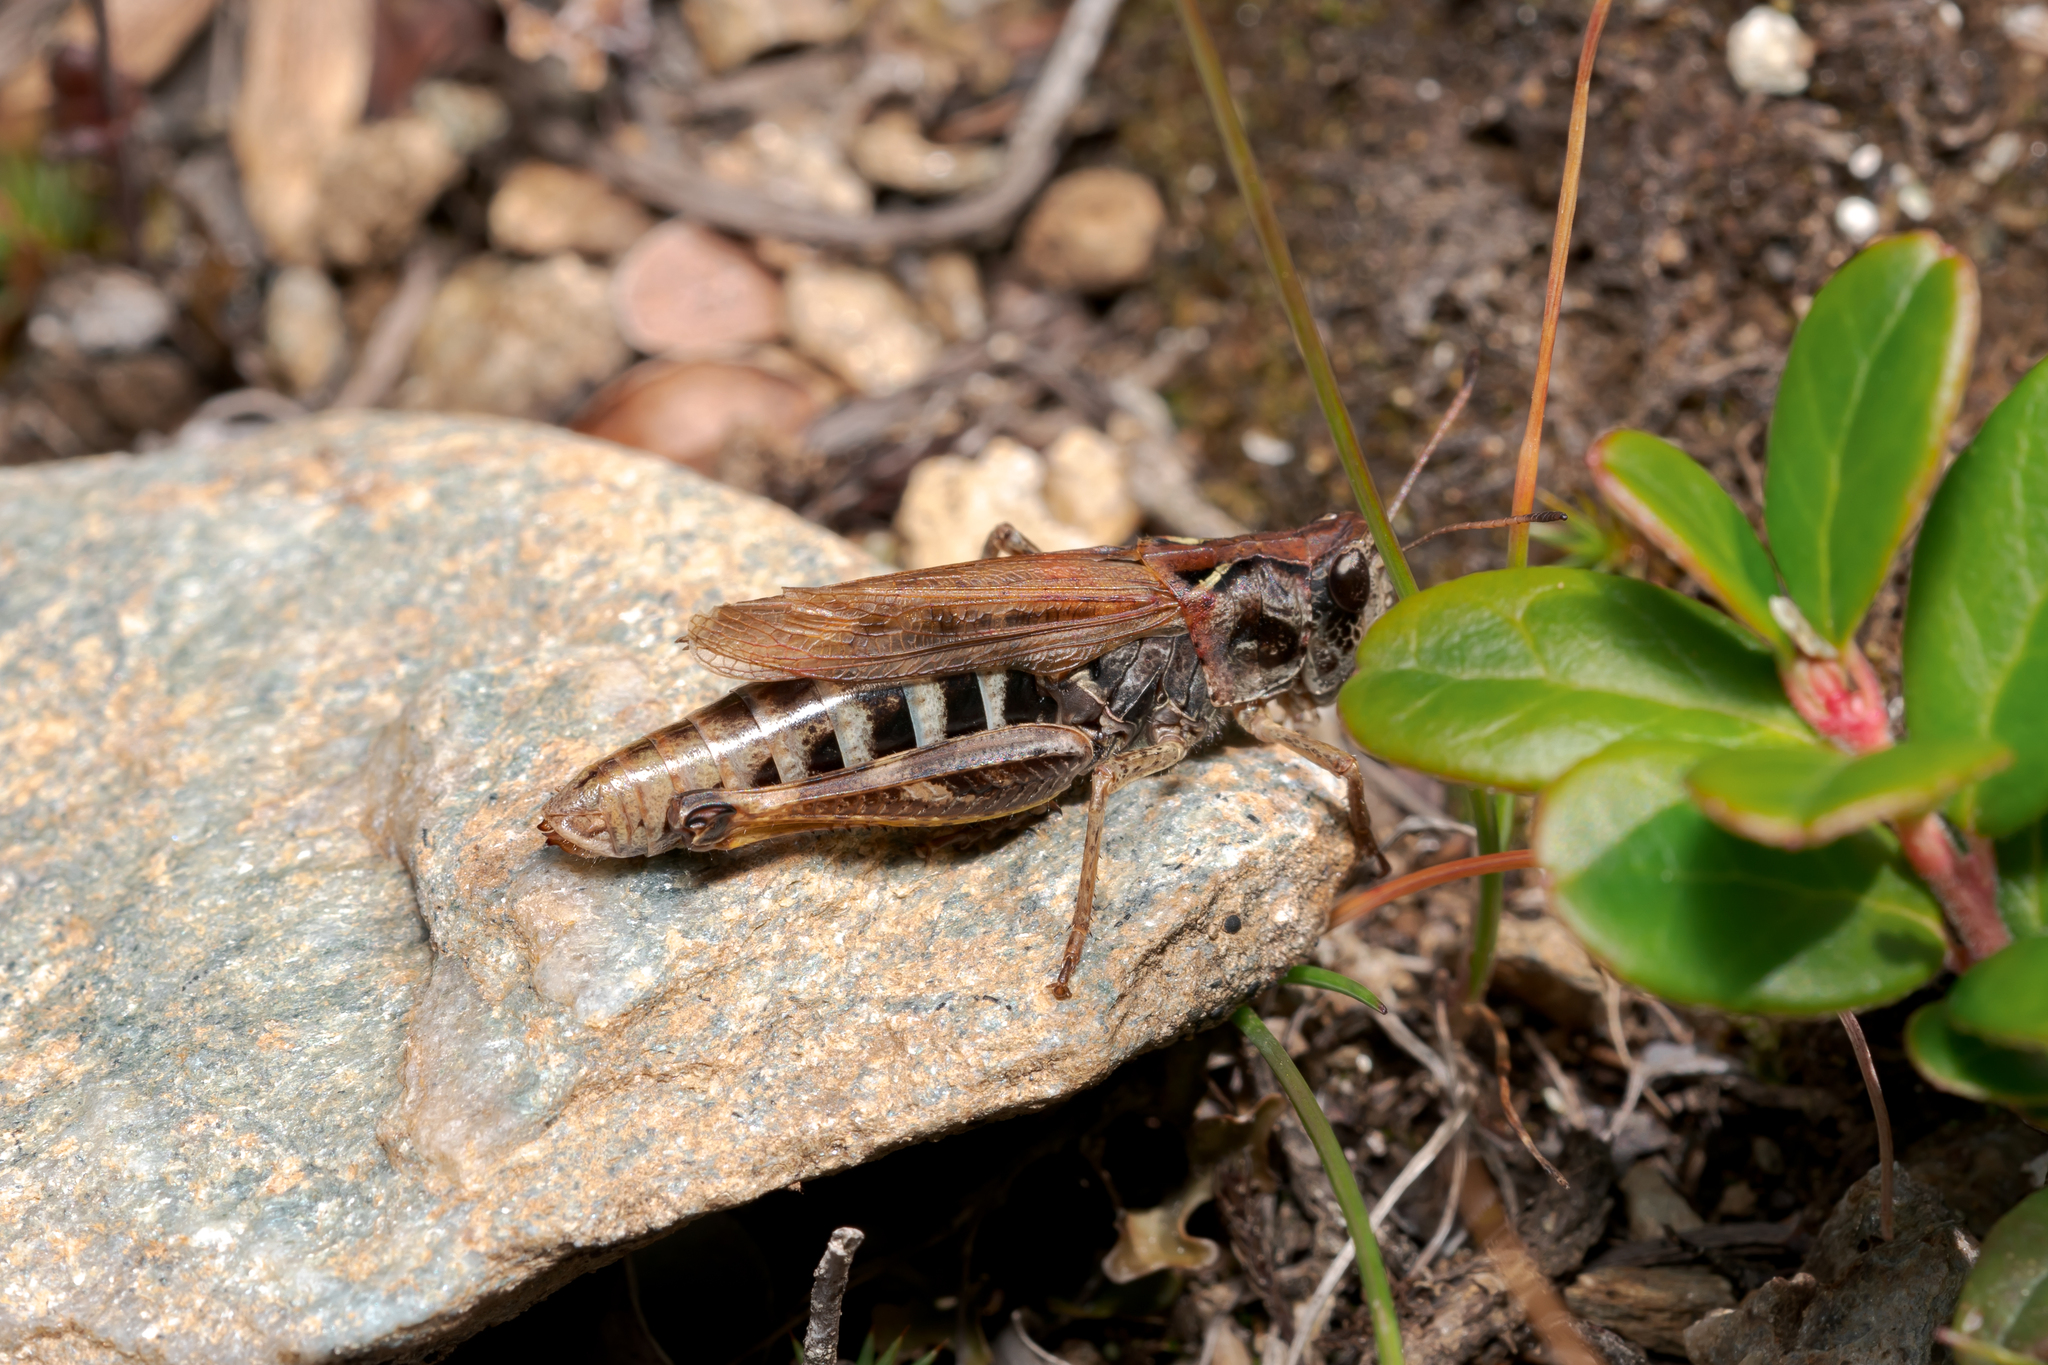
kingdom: Animalia
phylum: Arthropoda
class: Insecta
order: Orthoptera
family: Acrididae
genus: Gomphocerus
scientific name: Gomphocerus sibiricus
